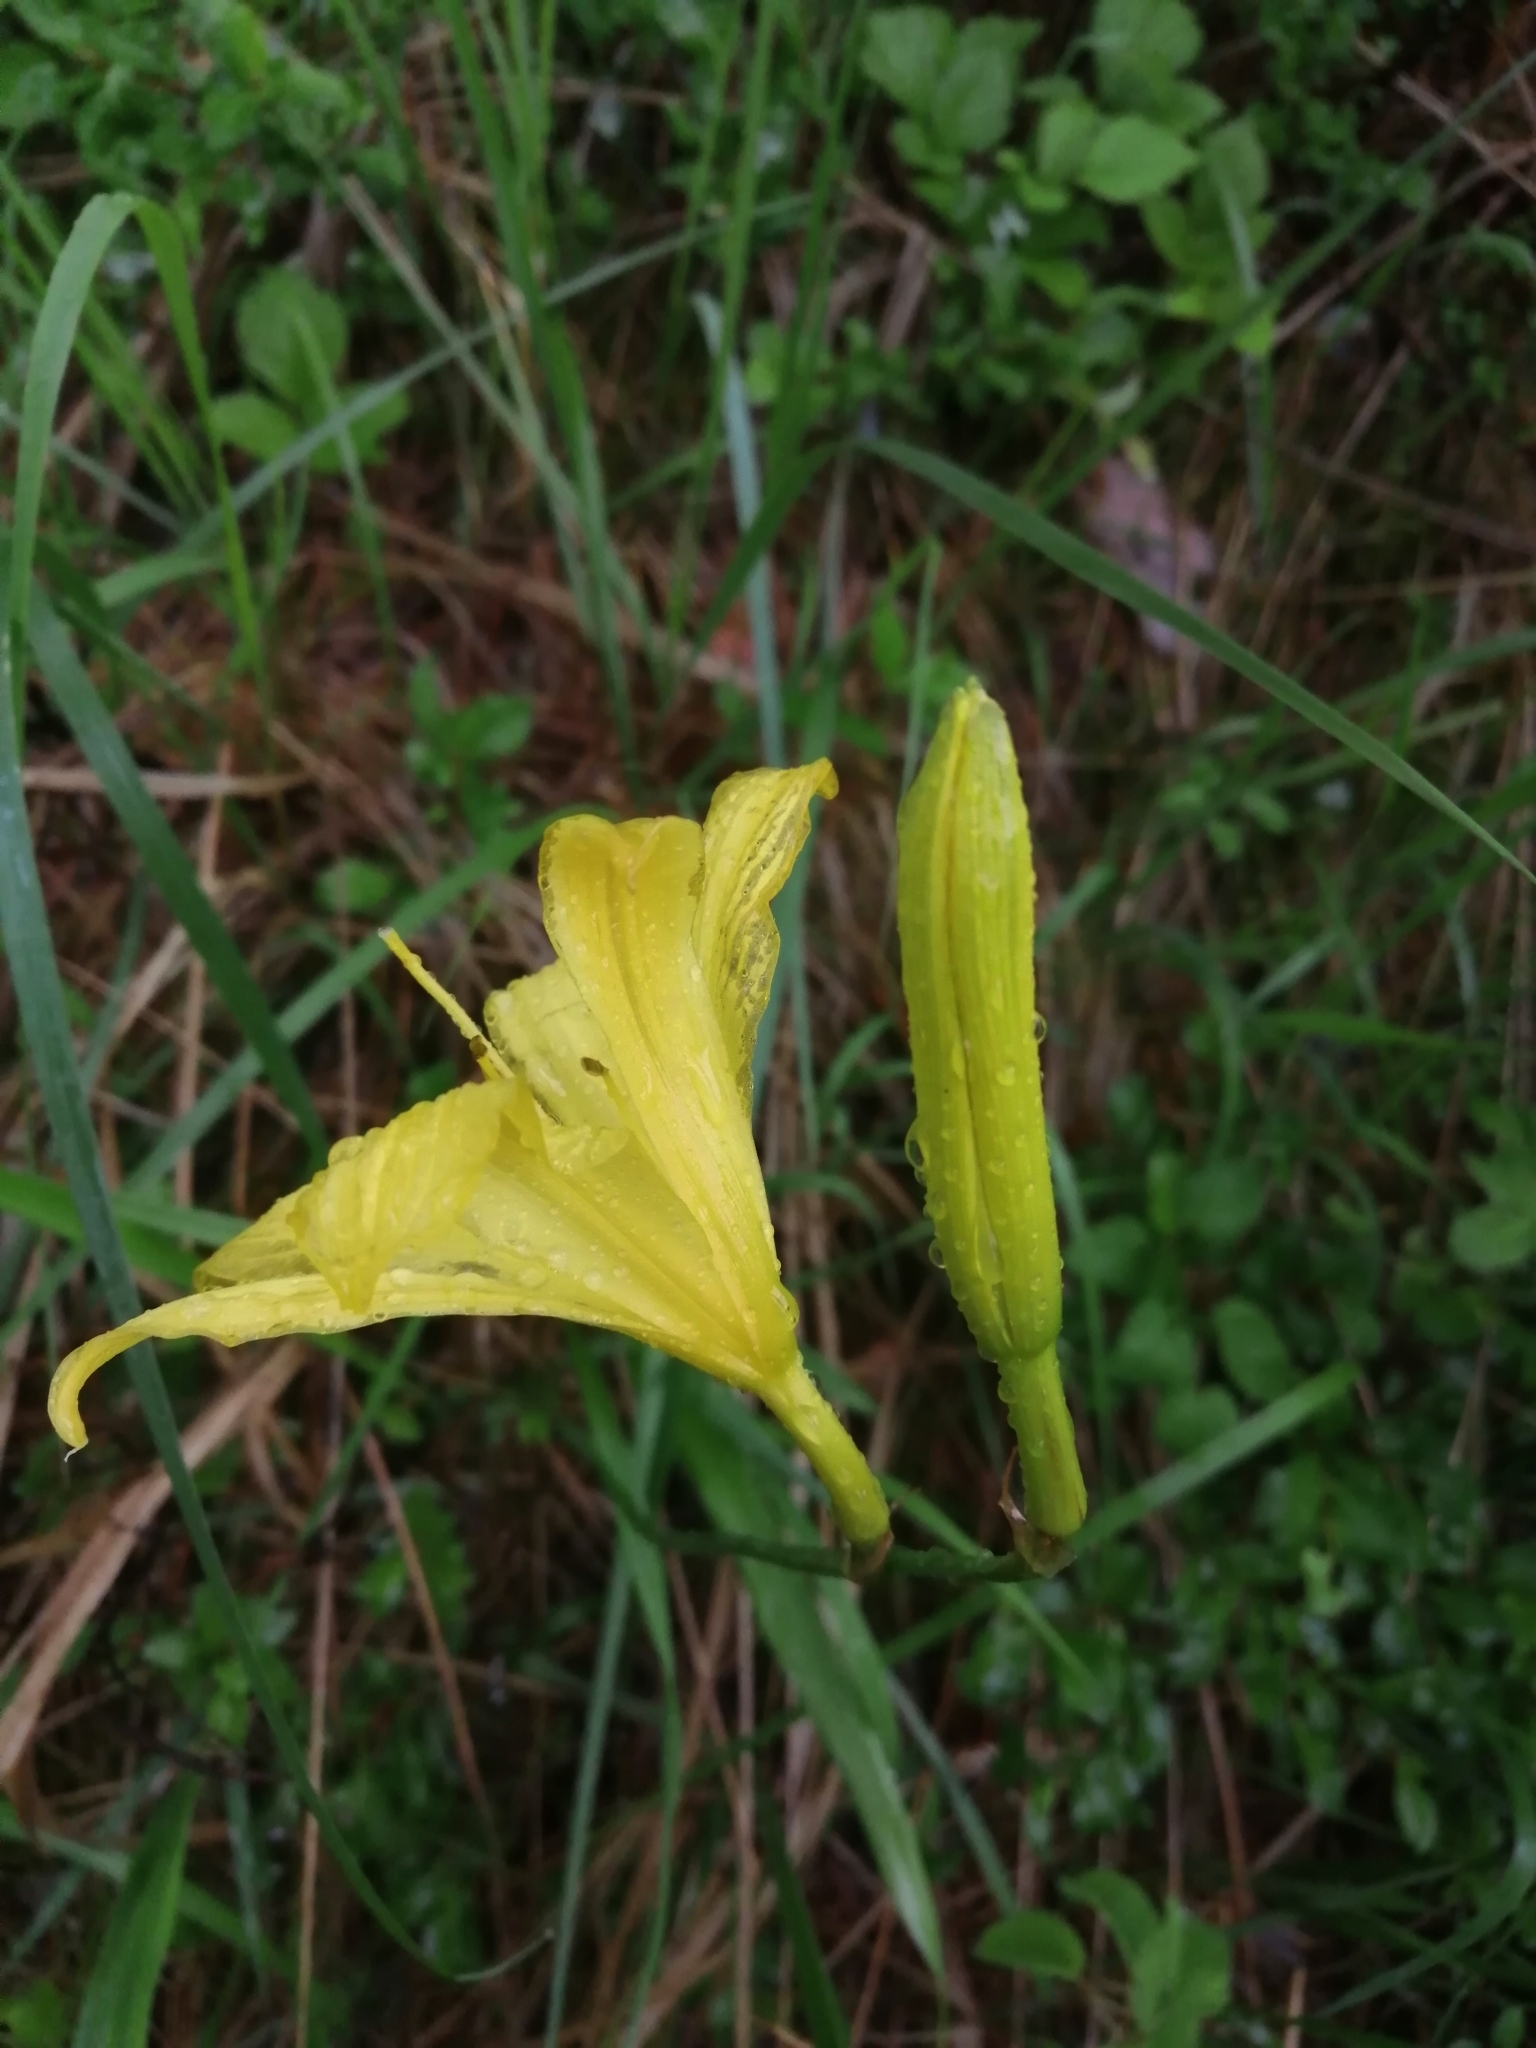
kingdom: Plantae
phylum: Tracheophyta
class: Liliopsida
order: Asparagales
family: Asphodelaceae
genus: Hemerocallis
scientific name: Hemerocallis minor
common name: Small daylily
